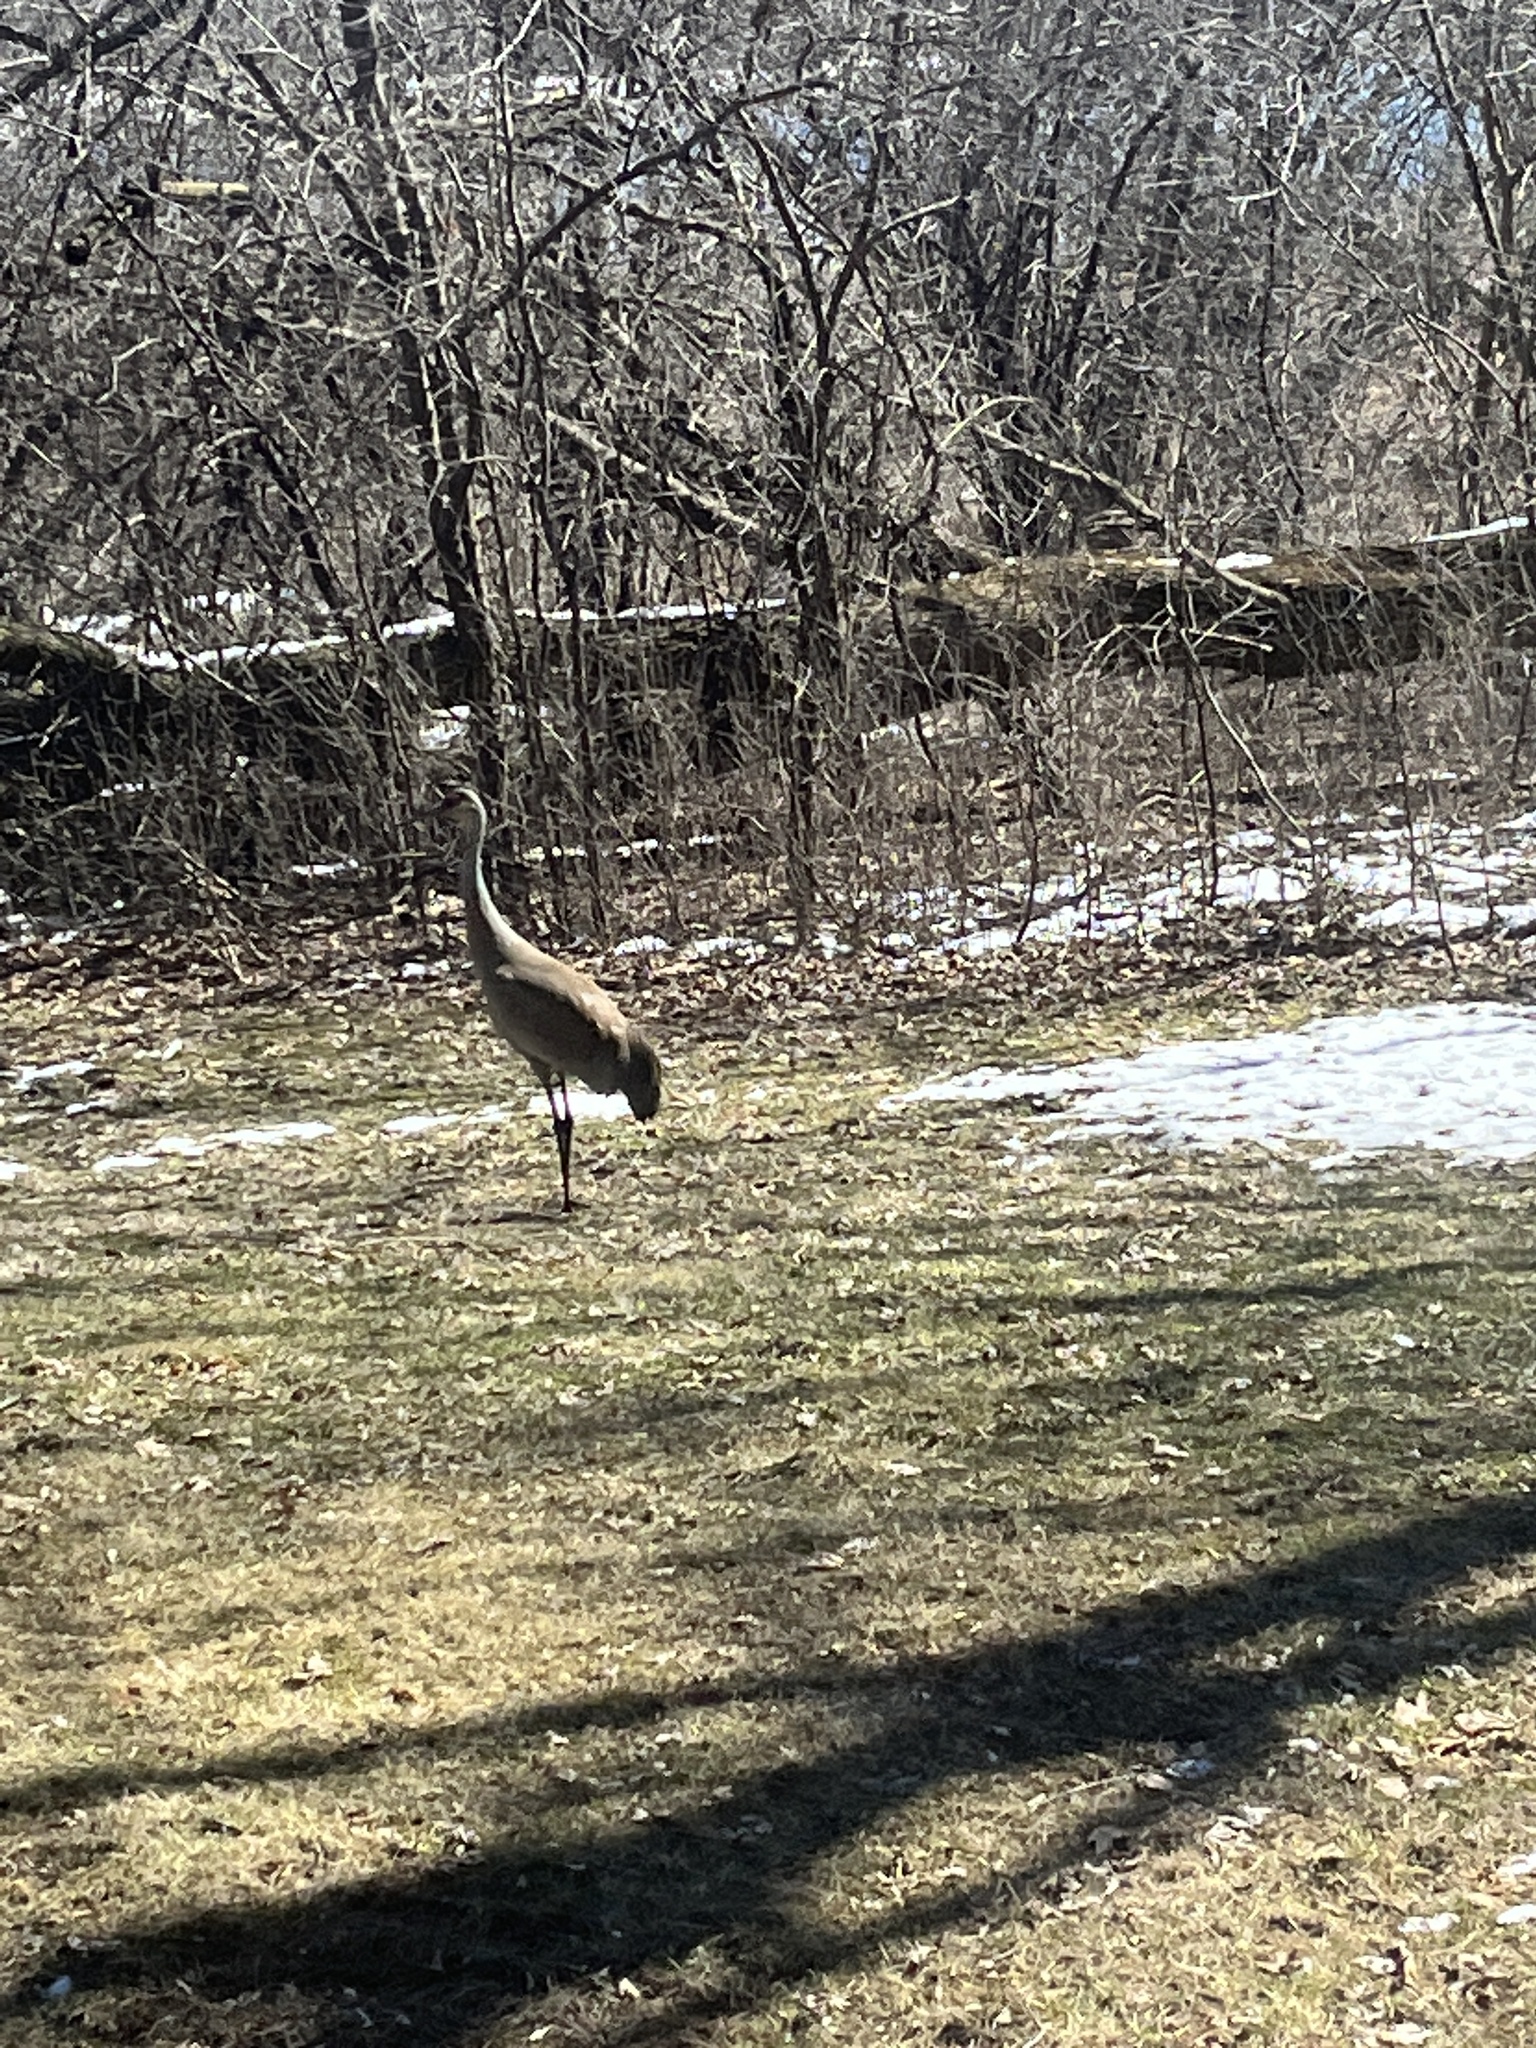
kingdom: Animalia
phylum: Chordata
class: Aves
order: Gruiformes
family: Gruidae
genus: Grus
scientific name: Grus canadensis
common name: Sandhill crane
